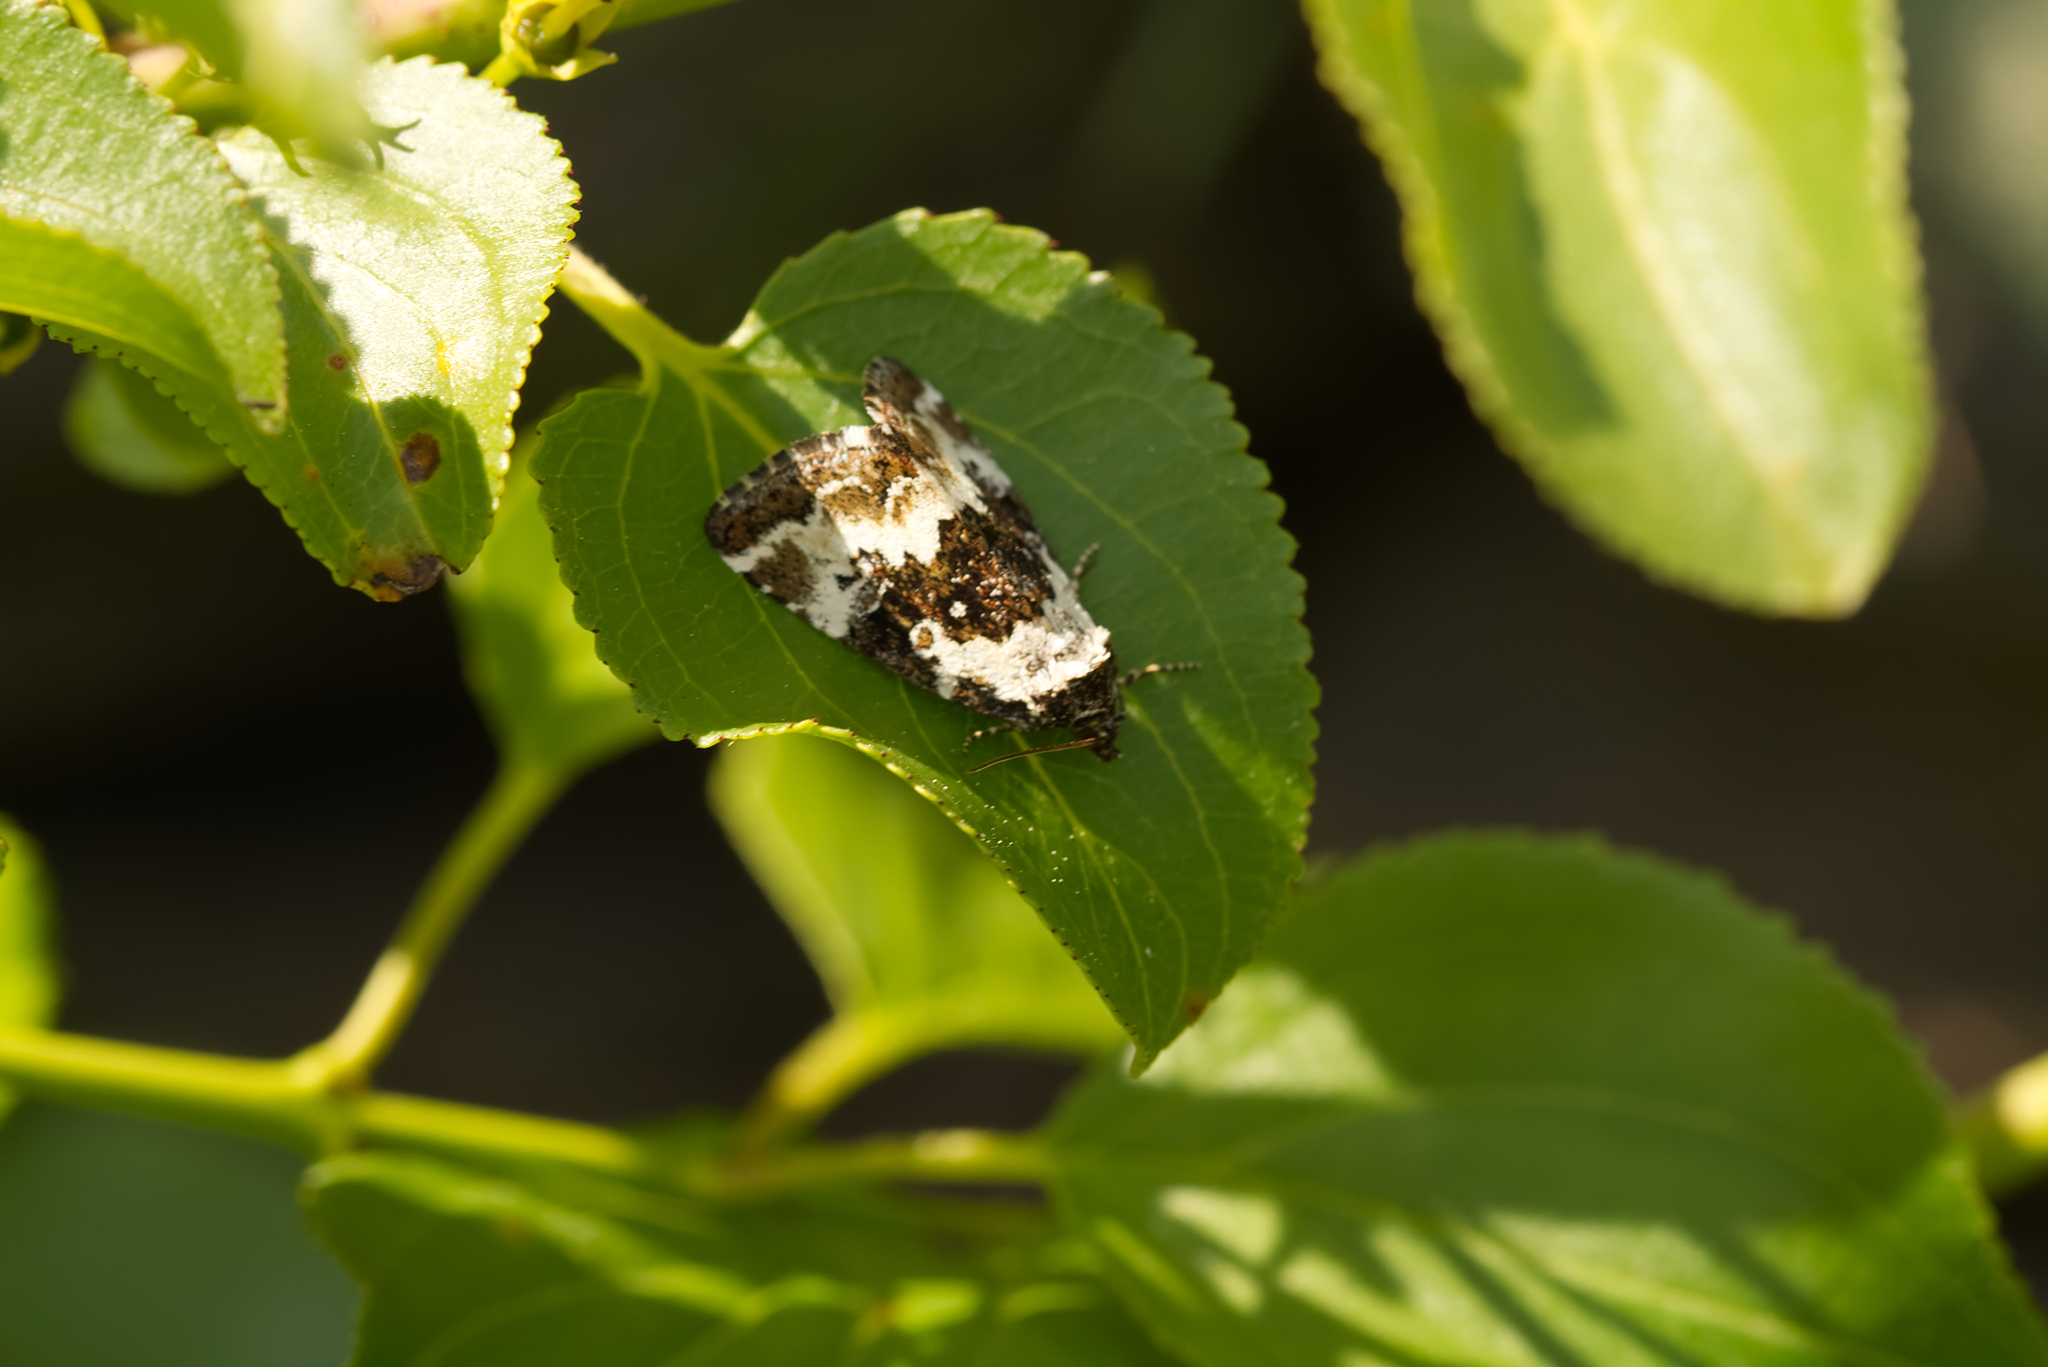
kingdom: Animalia
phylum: Arthropoda
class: Insecta
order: Lepidoptera
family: Noctuidae
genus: Deltote
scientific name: Deltote deceptoria
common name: Pretty marbled
